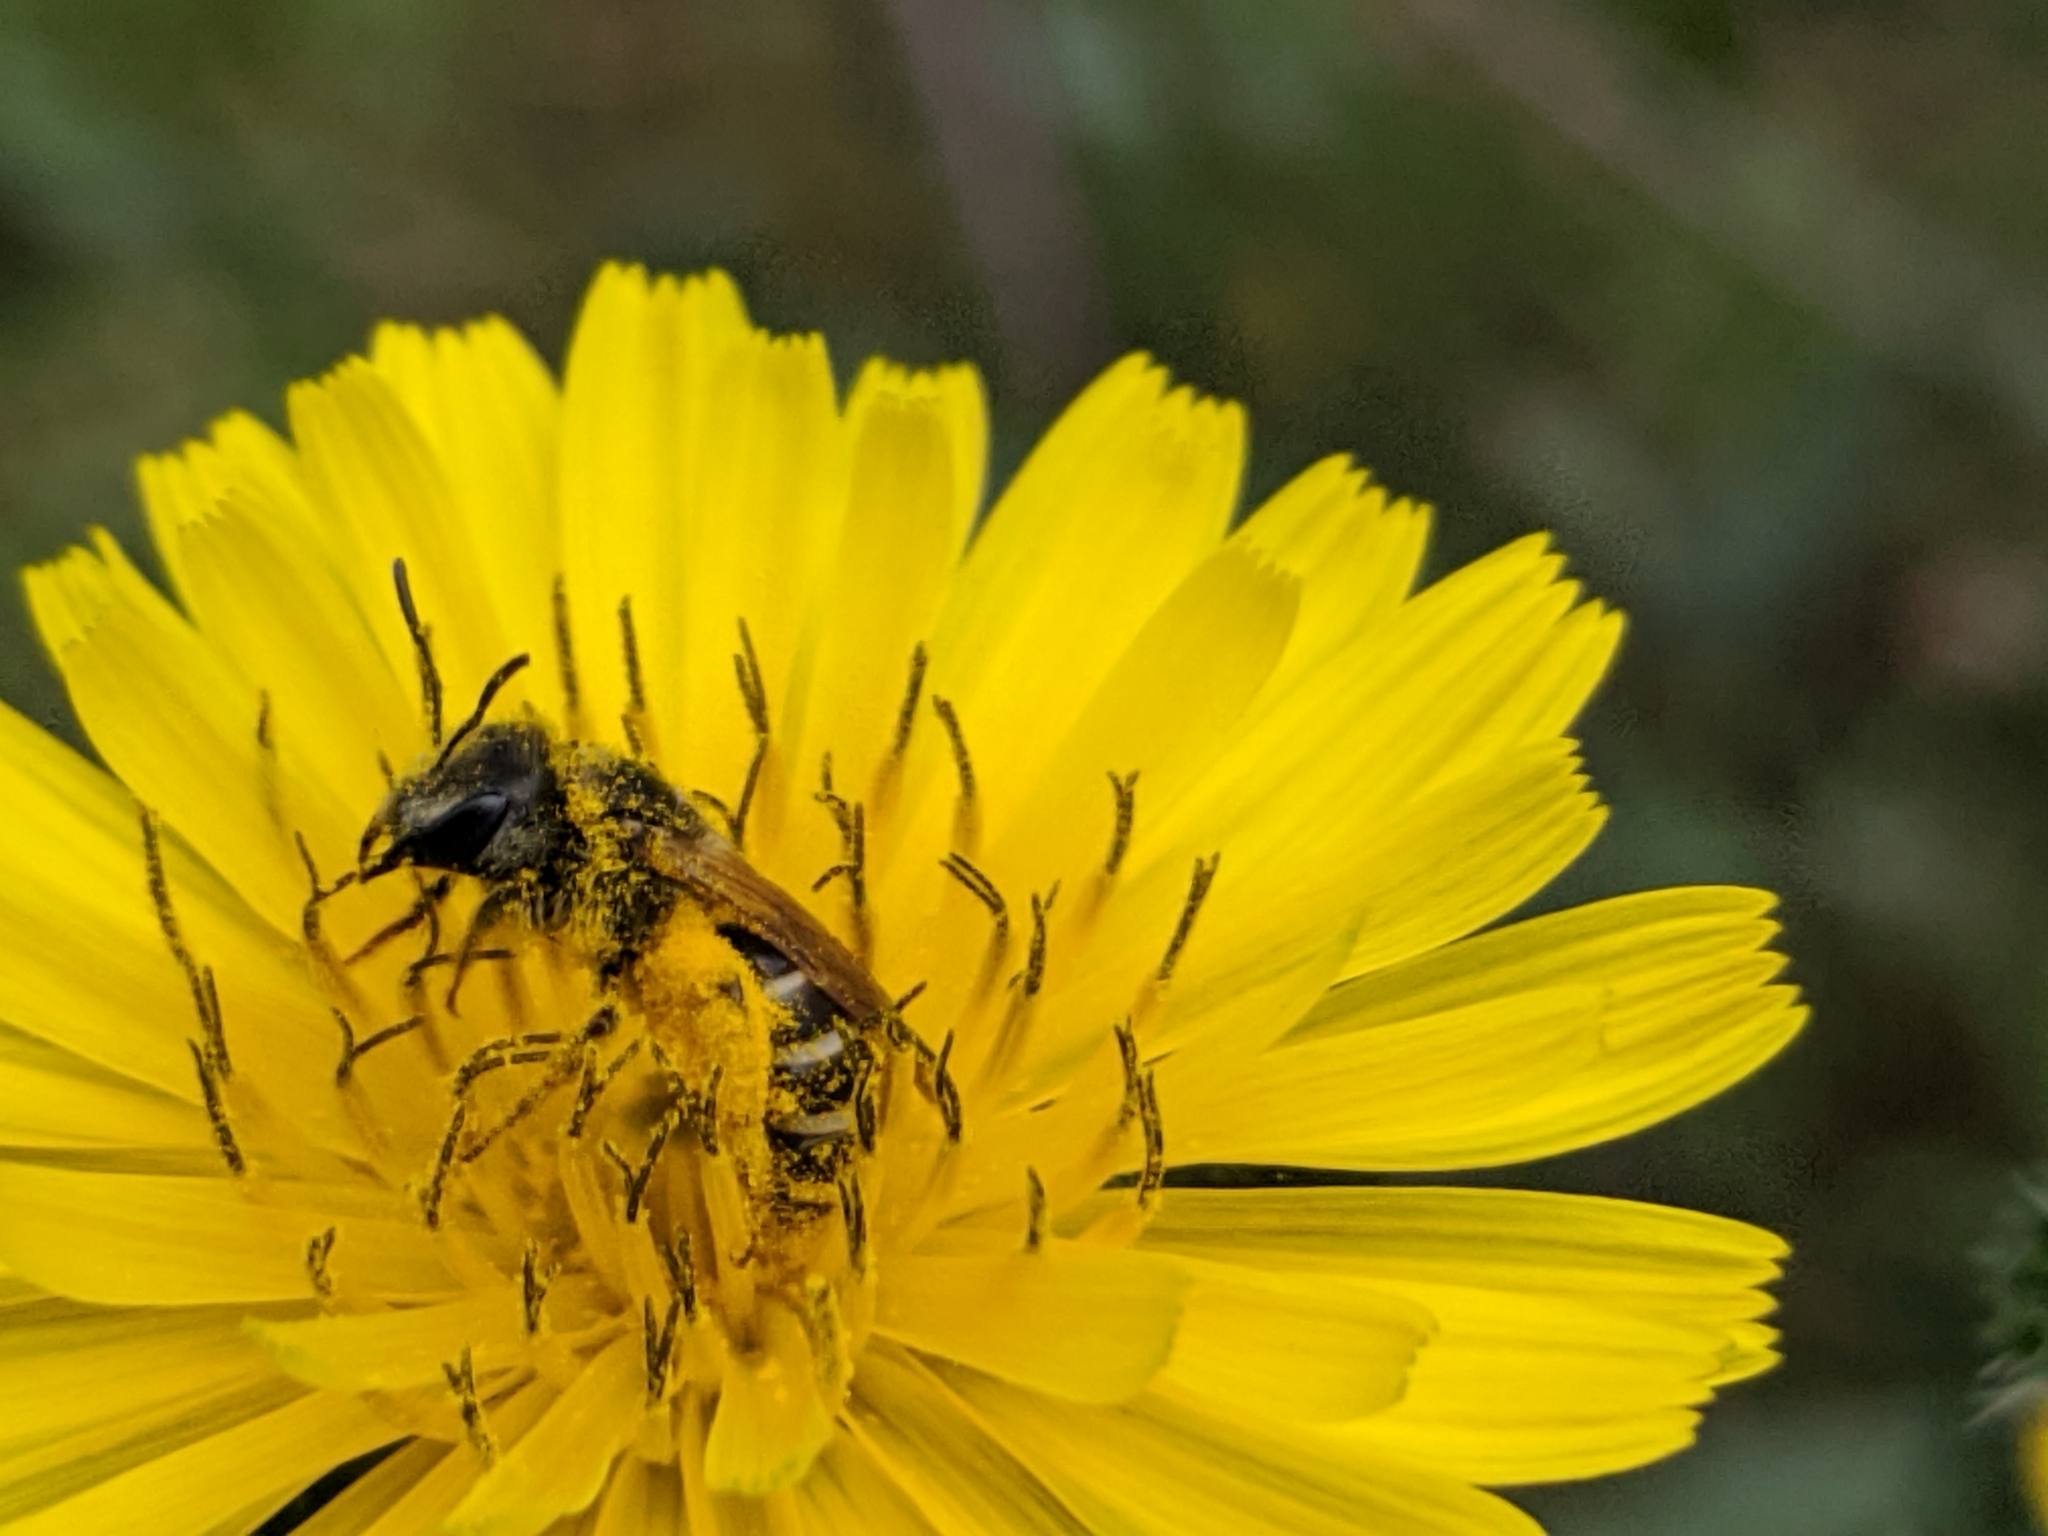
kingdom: Animalia
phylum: Arthropoda
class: Insecta
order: Hymenoptera
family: Halictidae
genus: Halictus
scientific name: Halictus ligatus
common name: Ligated furrow bee
